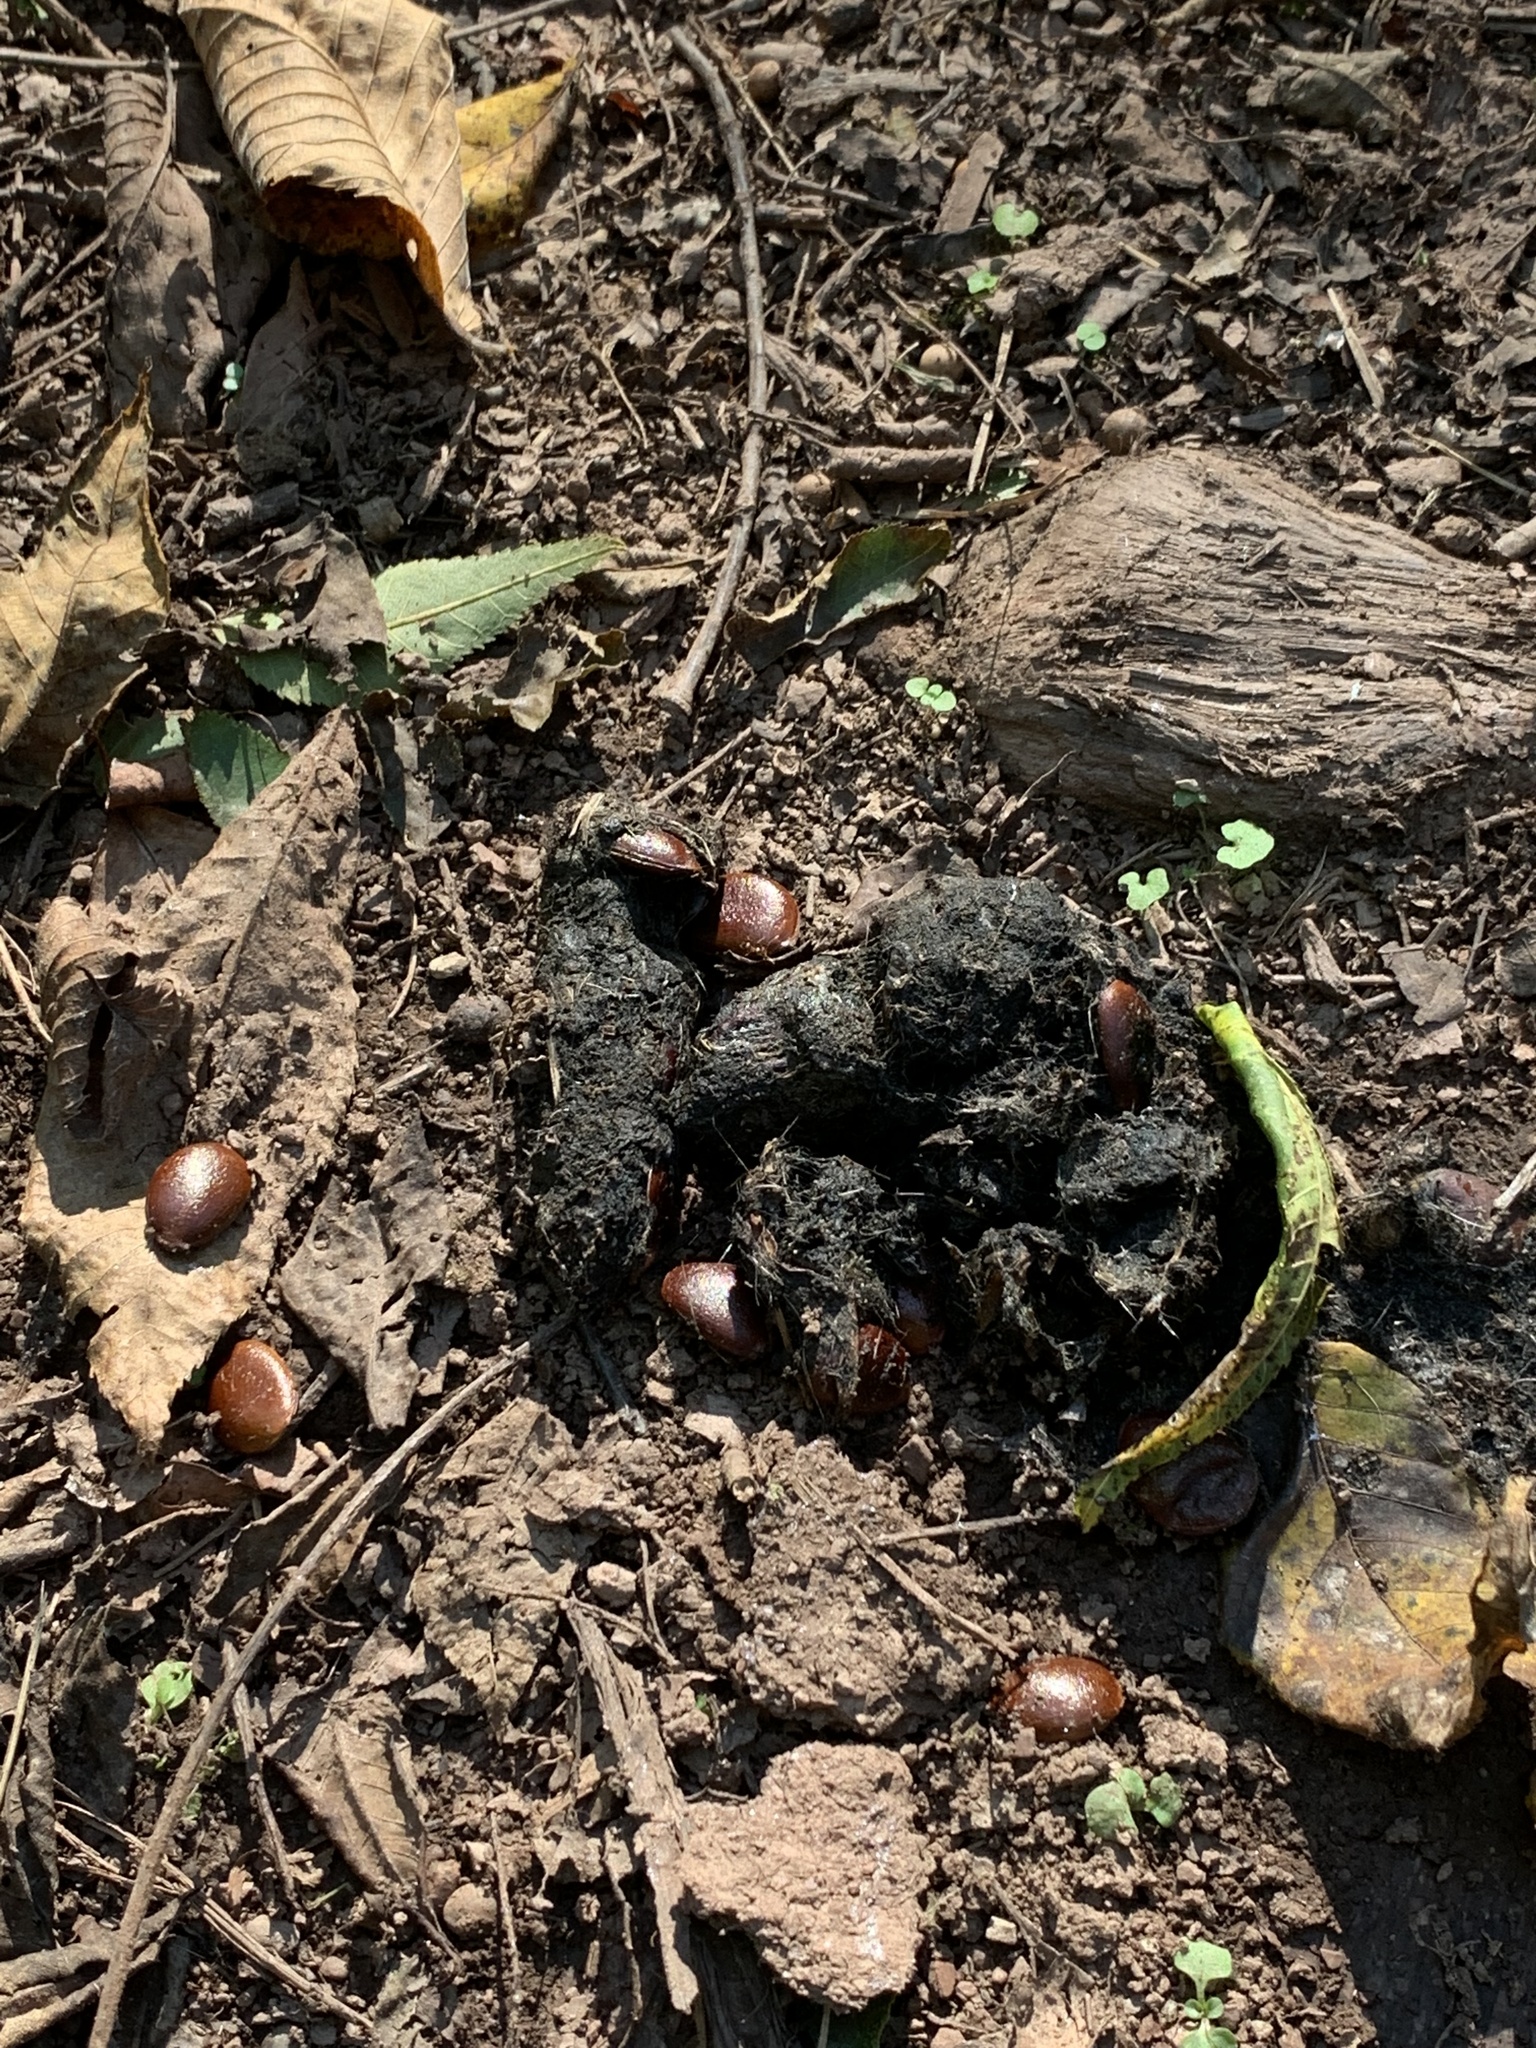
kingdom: Plantae
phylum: Tracheophyta
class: Magnoliopsida
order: Ericales
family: Ebenaceae
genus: Diospyros
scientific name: Diospyros virginiana
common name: Persimmon
